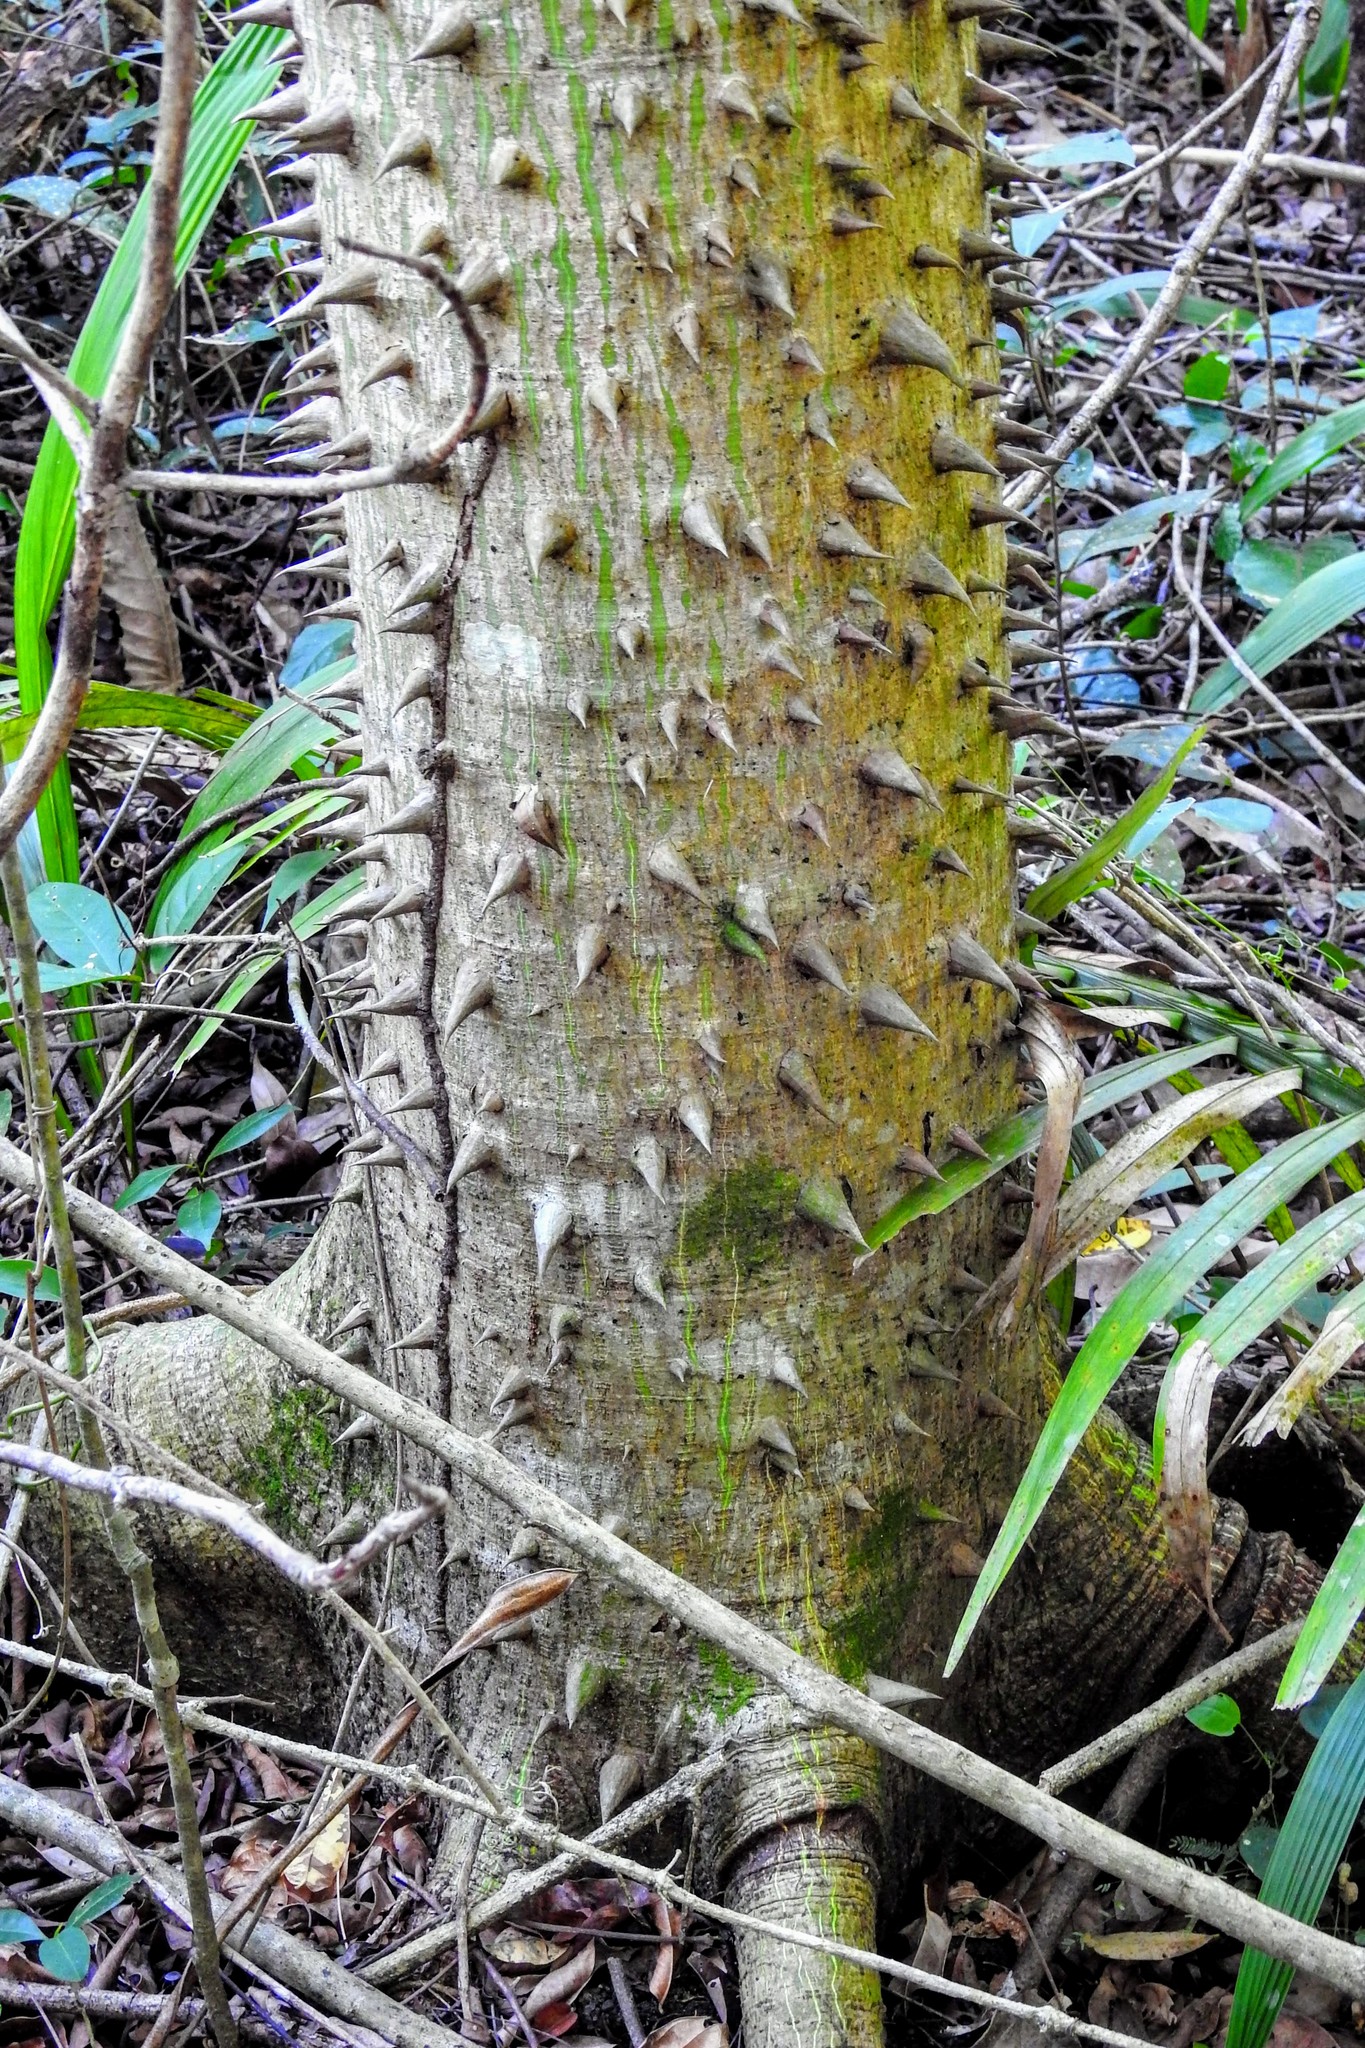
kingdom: Plantae
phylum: Tracheophyta
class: Magnoliopsida
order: Malvales
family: Malvaceae
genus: Ceiba
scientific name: Ceiba pentandra
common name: Kapok
